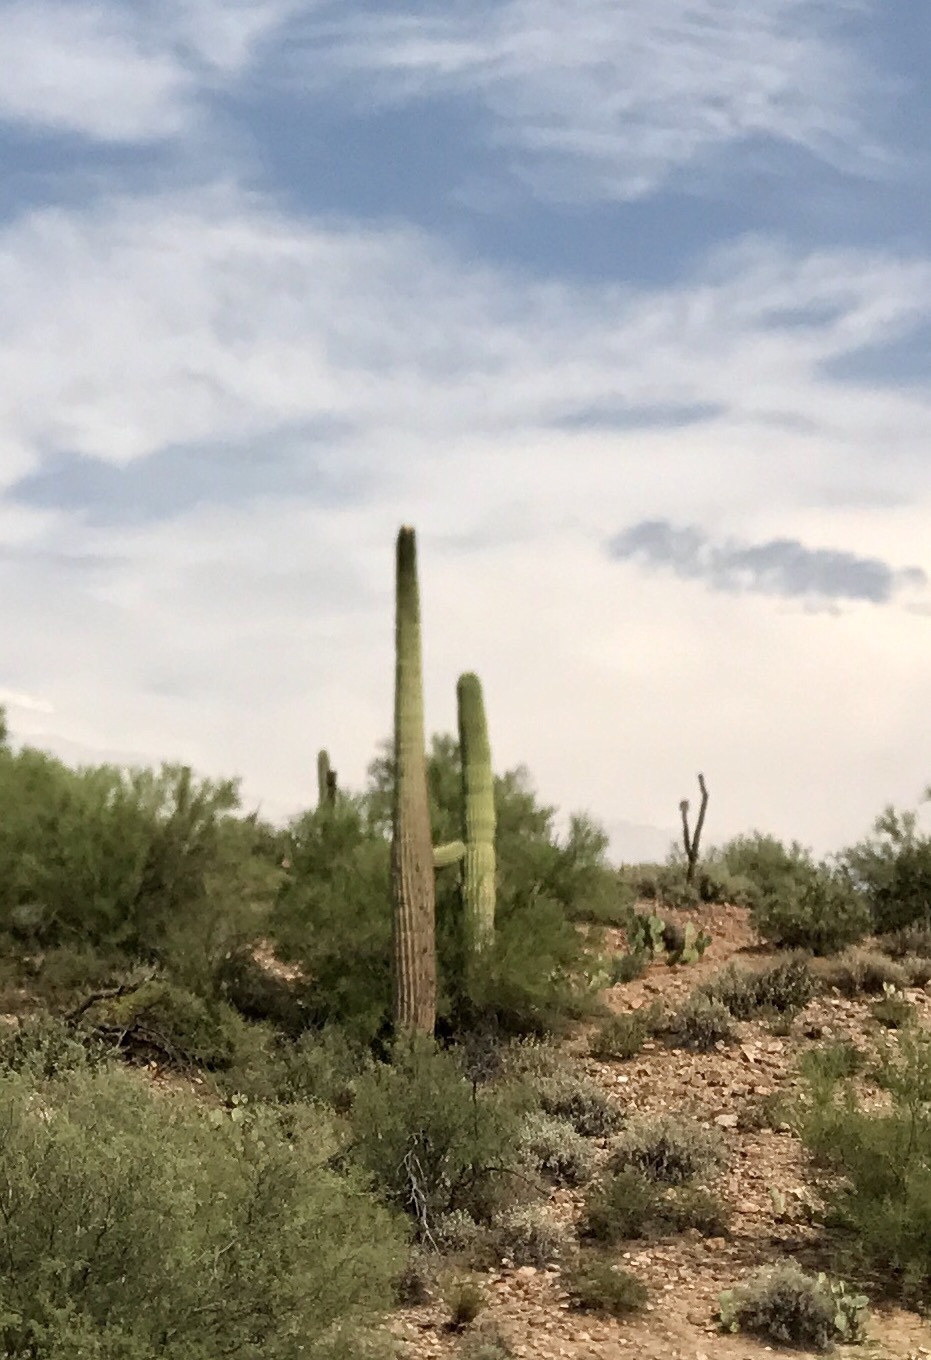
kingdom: Plantae
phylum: Tracheophyta
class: Magnoliopsida
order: Caryophyllales
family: Cactaceae
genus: Carnegiea
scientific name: Carnegiea gigantea
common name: Saguaro
